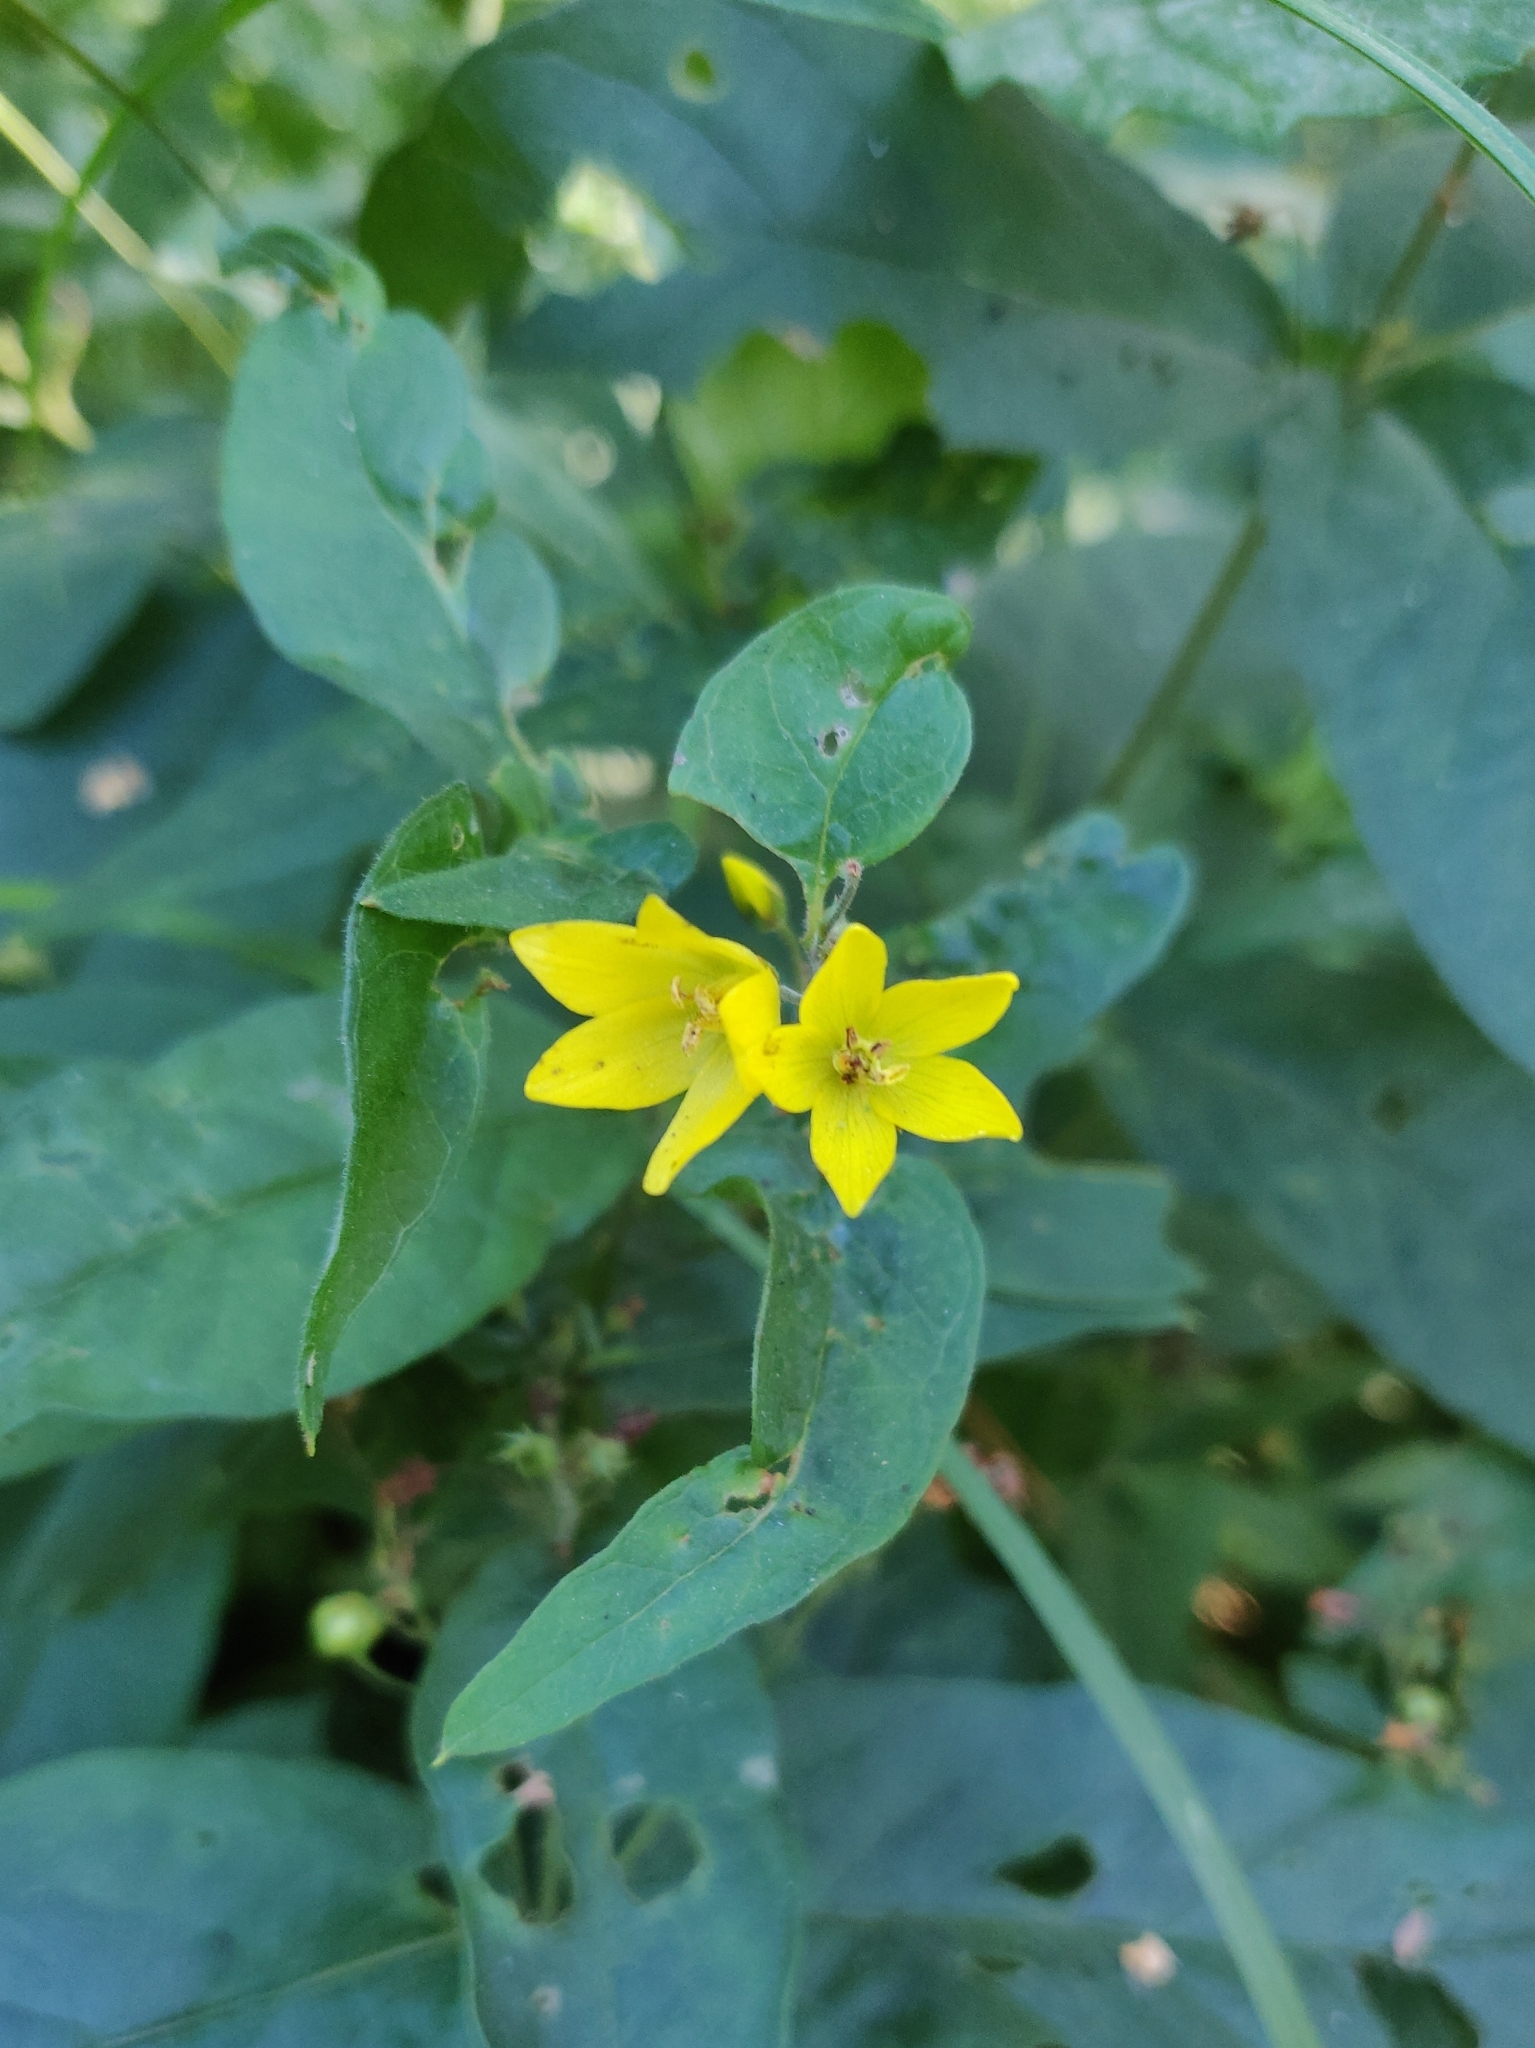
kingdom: Plantae
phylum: Tracheophyta
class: Magnoliopsida
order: Ericales
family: Primulaceae
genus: Lysimachia
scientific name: Lysimachia vulgaris
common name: Yellow loosestrife
